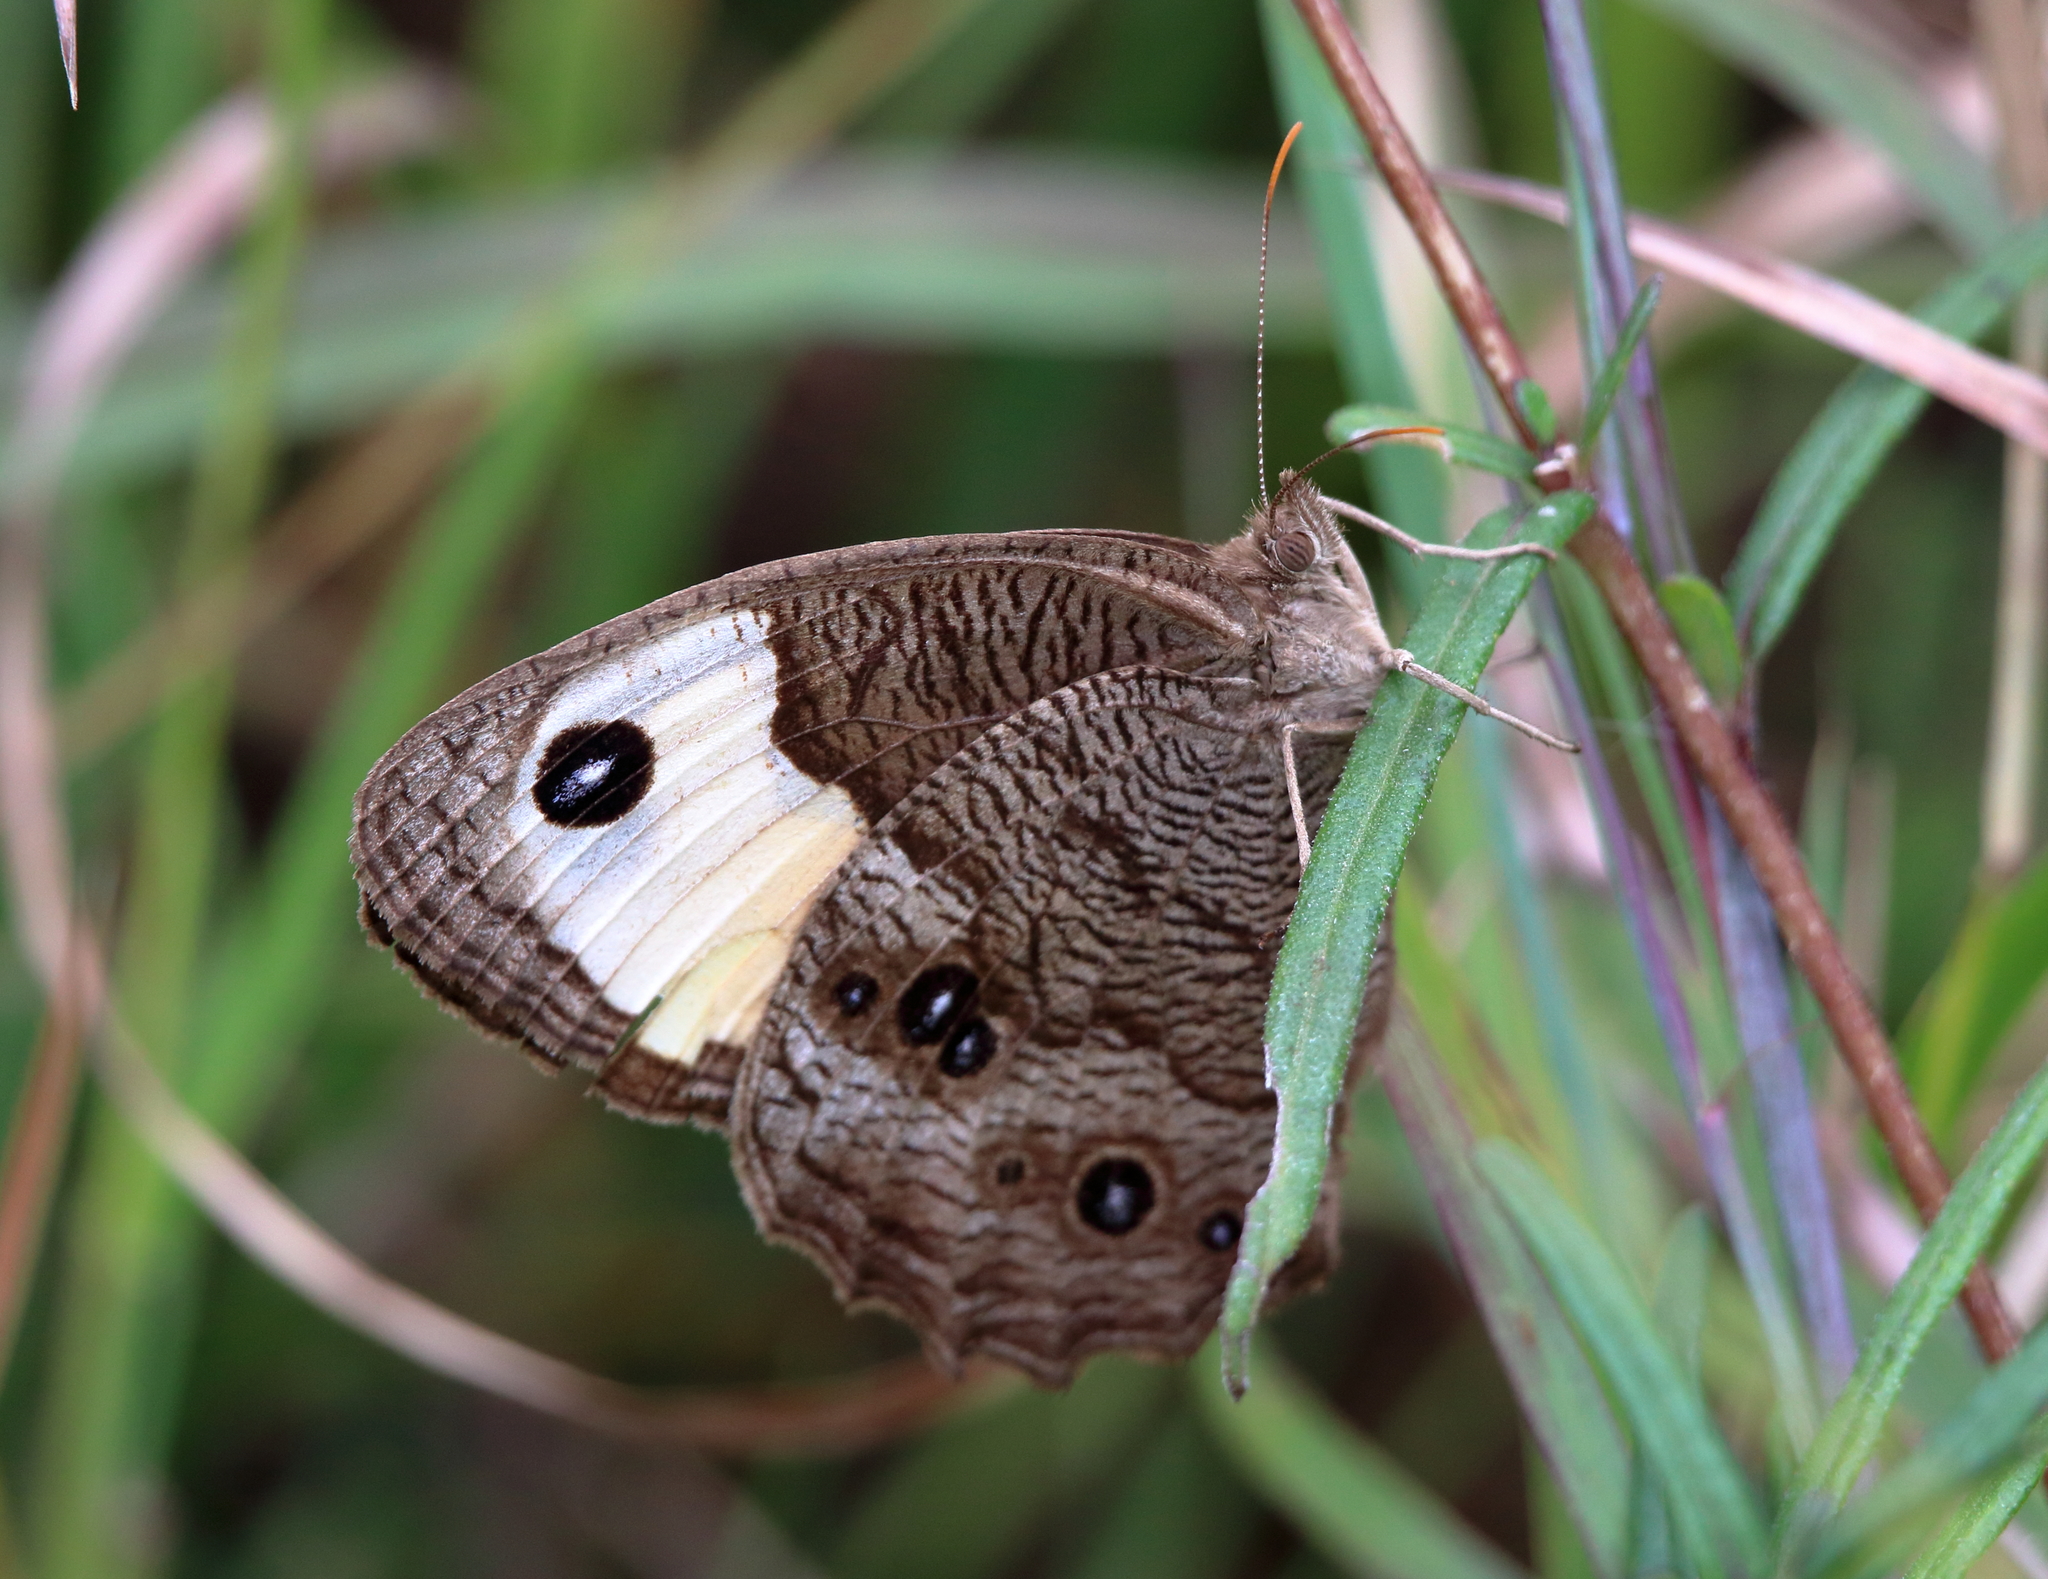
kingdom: Animalia
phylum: Arthropoda
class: Insecta
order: Lepidoptera
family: Nymphalidae
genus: Cercyonis
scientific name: Cercyonis pegala
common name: Common wood-nymph
